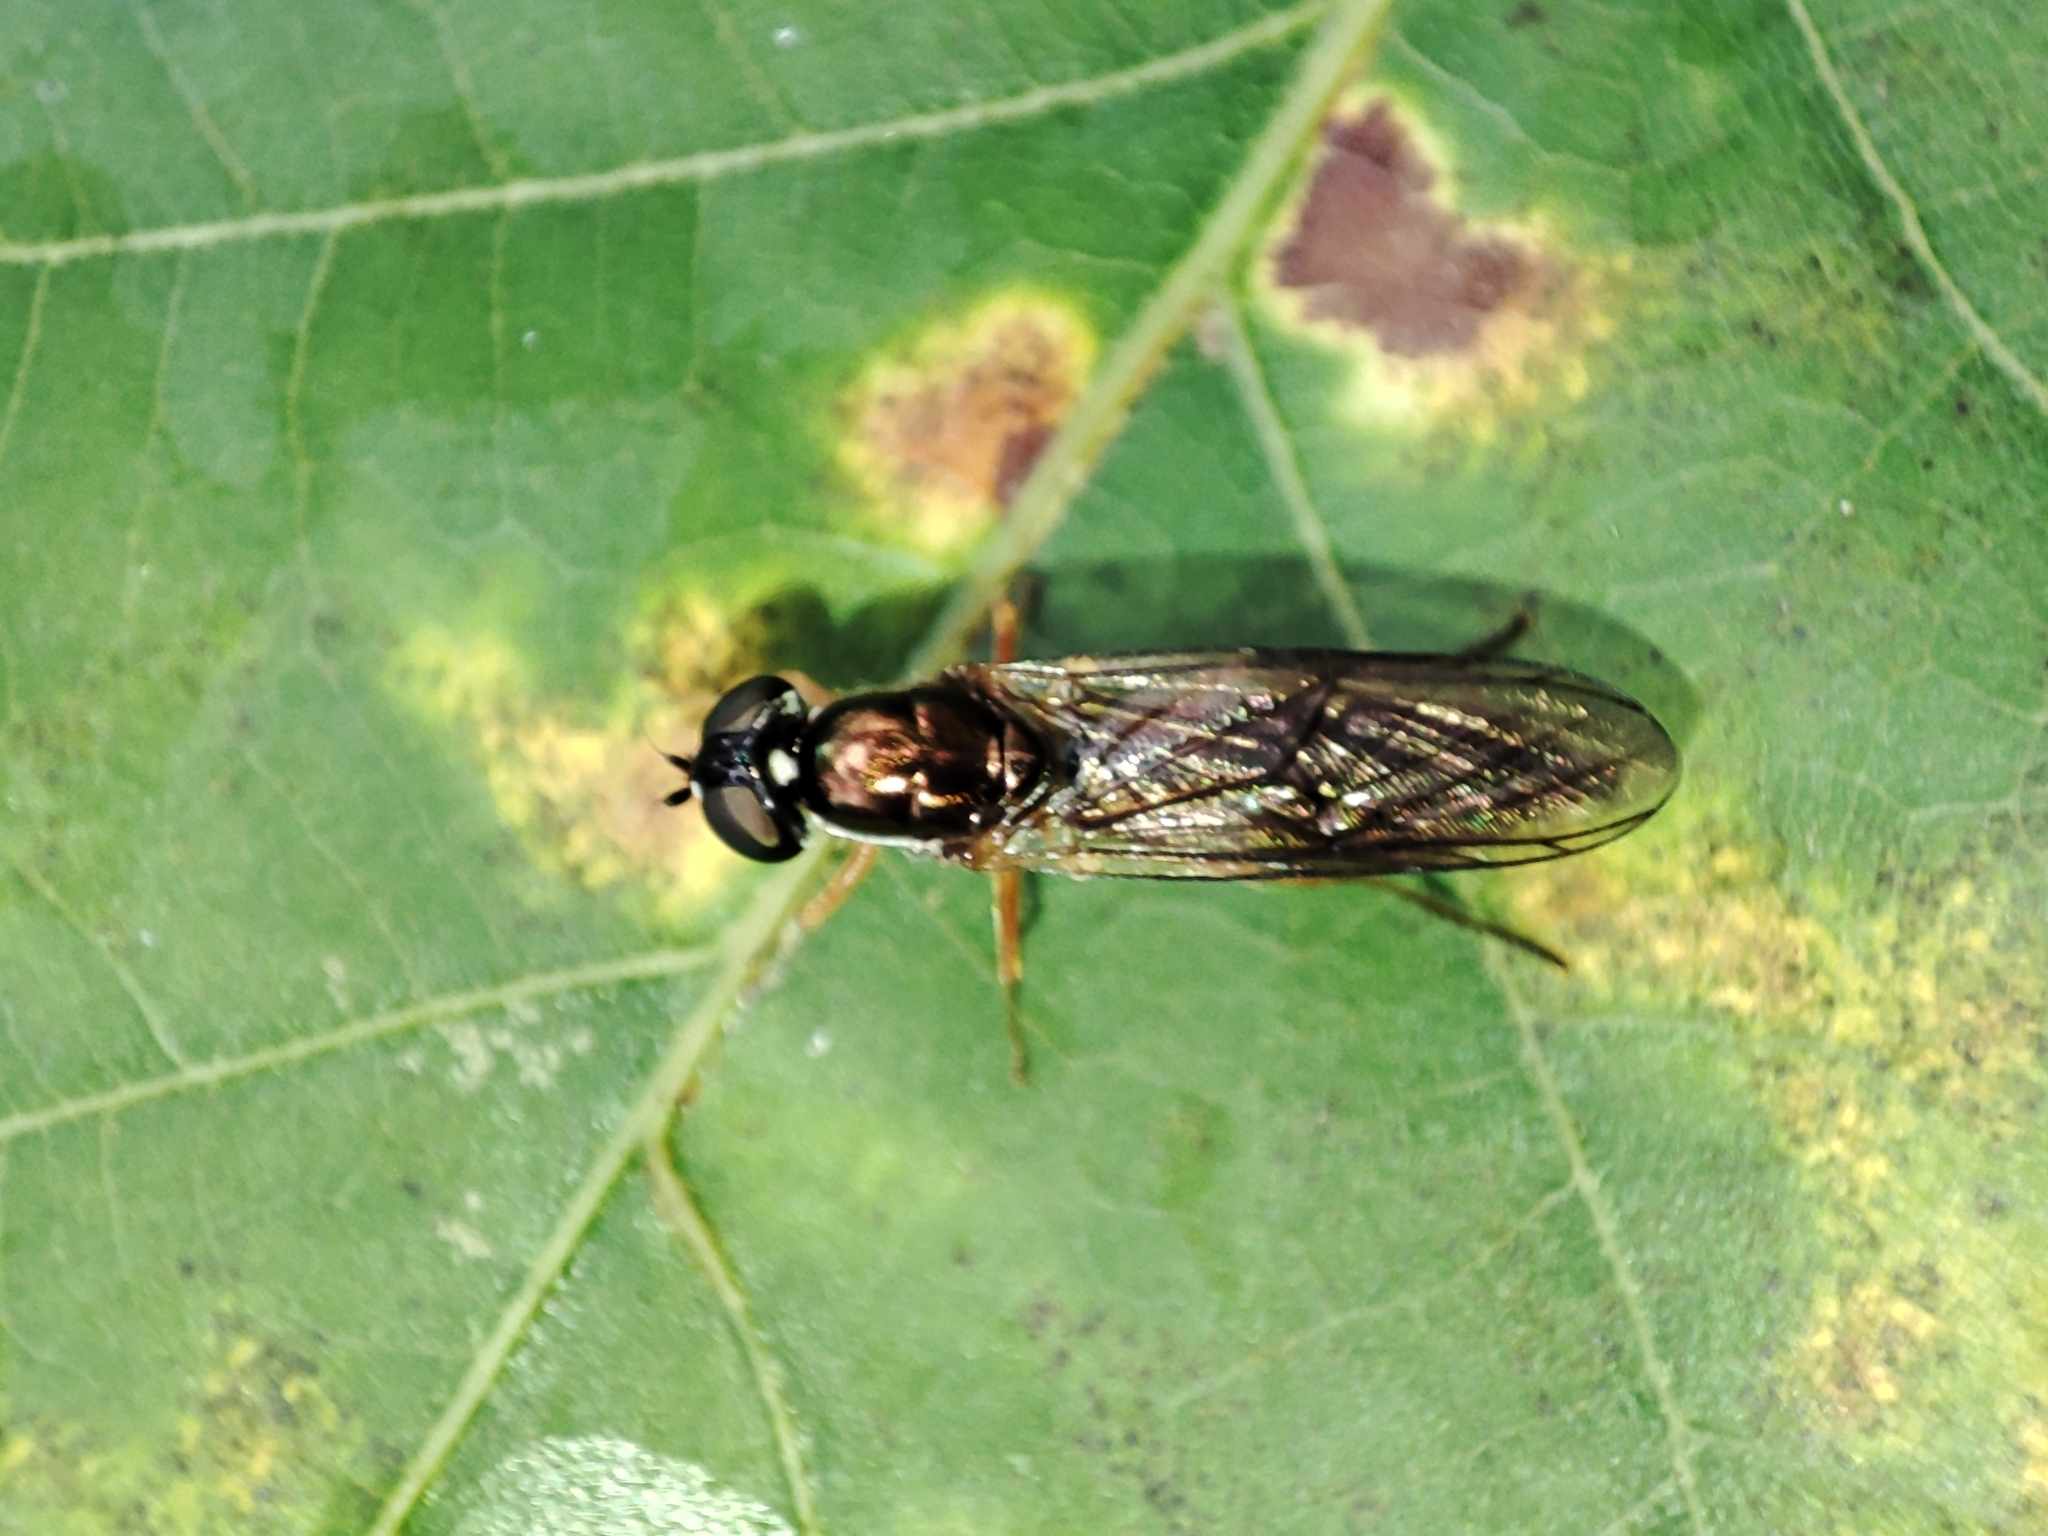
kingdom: Animalia
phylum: Arthropoda
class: Insecta
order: Diptera
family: Stratiomyidae
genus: Sargus
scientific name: Sargus bipunctatus
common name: Twin-spot centurion
